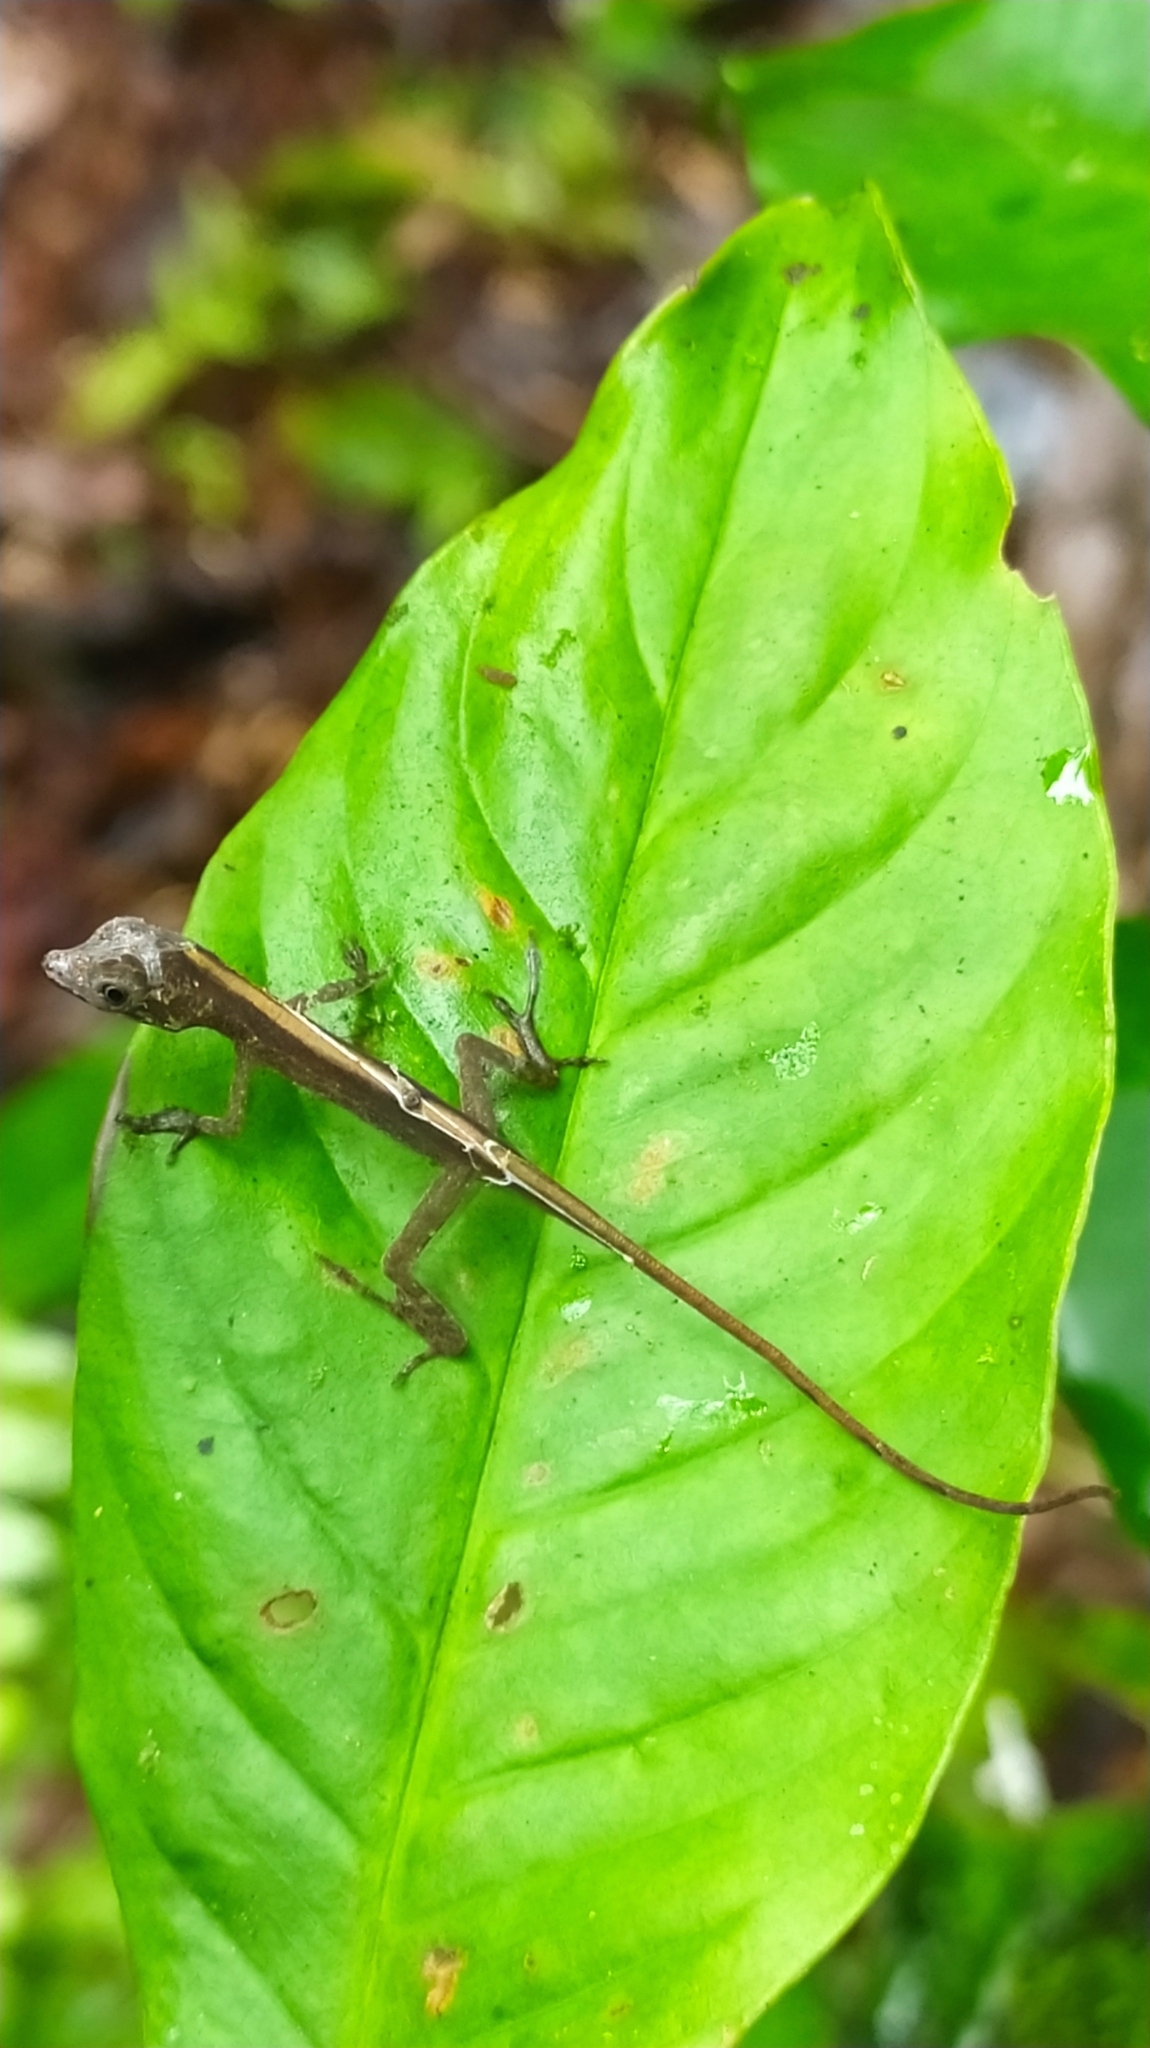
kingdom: Animalia
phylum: Chordata
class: Squamata
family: Dactyloidae
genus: Anolis
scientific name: Anolis chrysolepis
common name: Goldenscale anole
